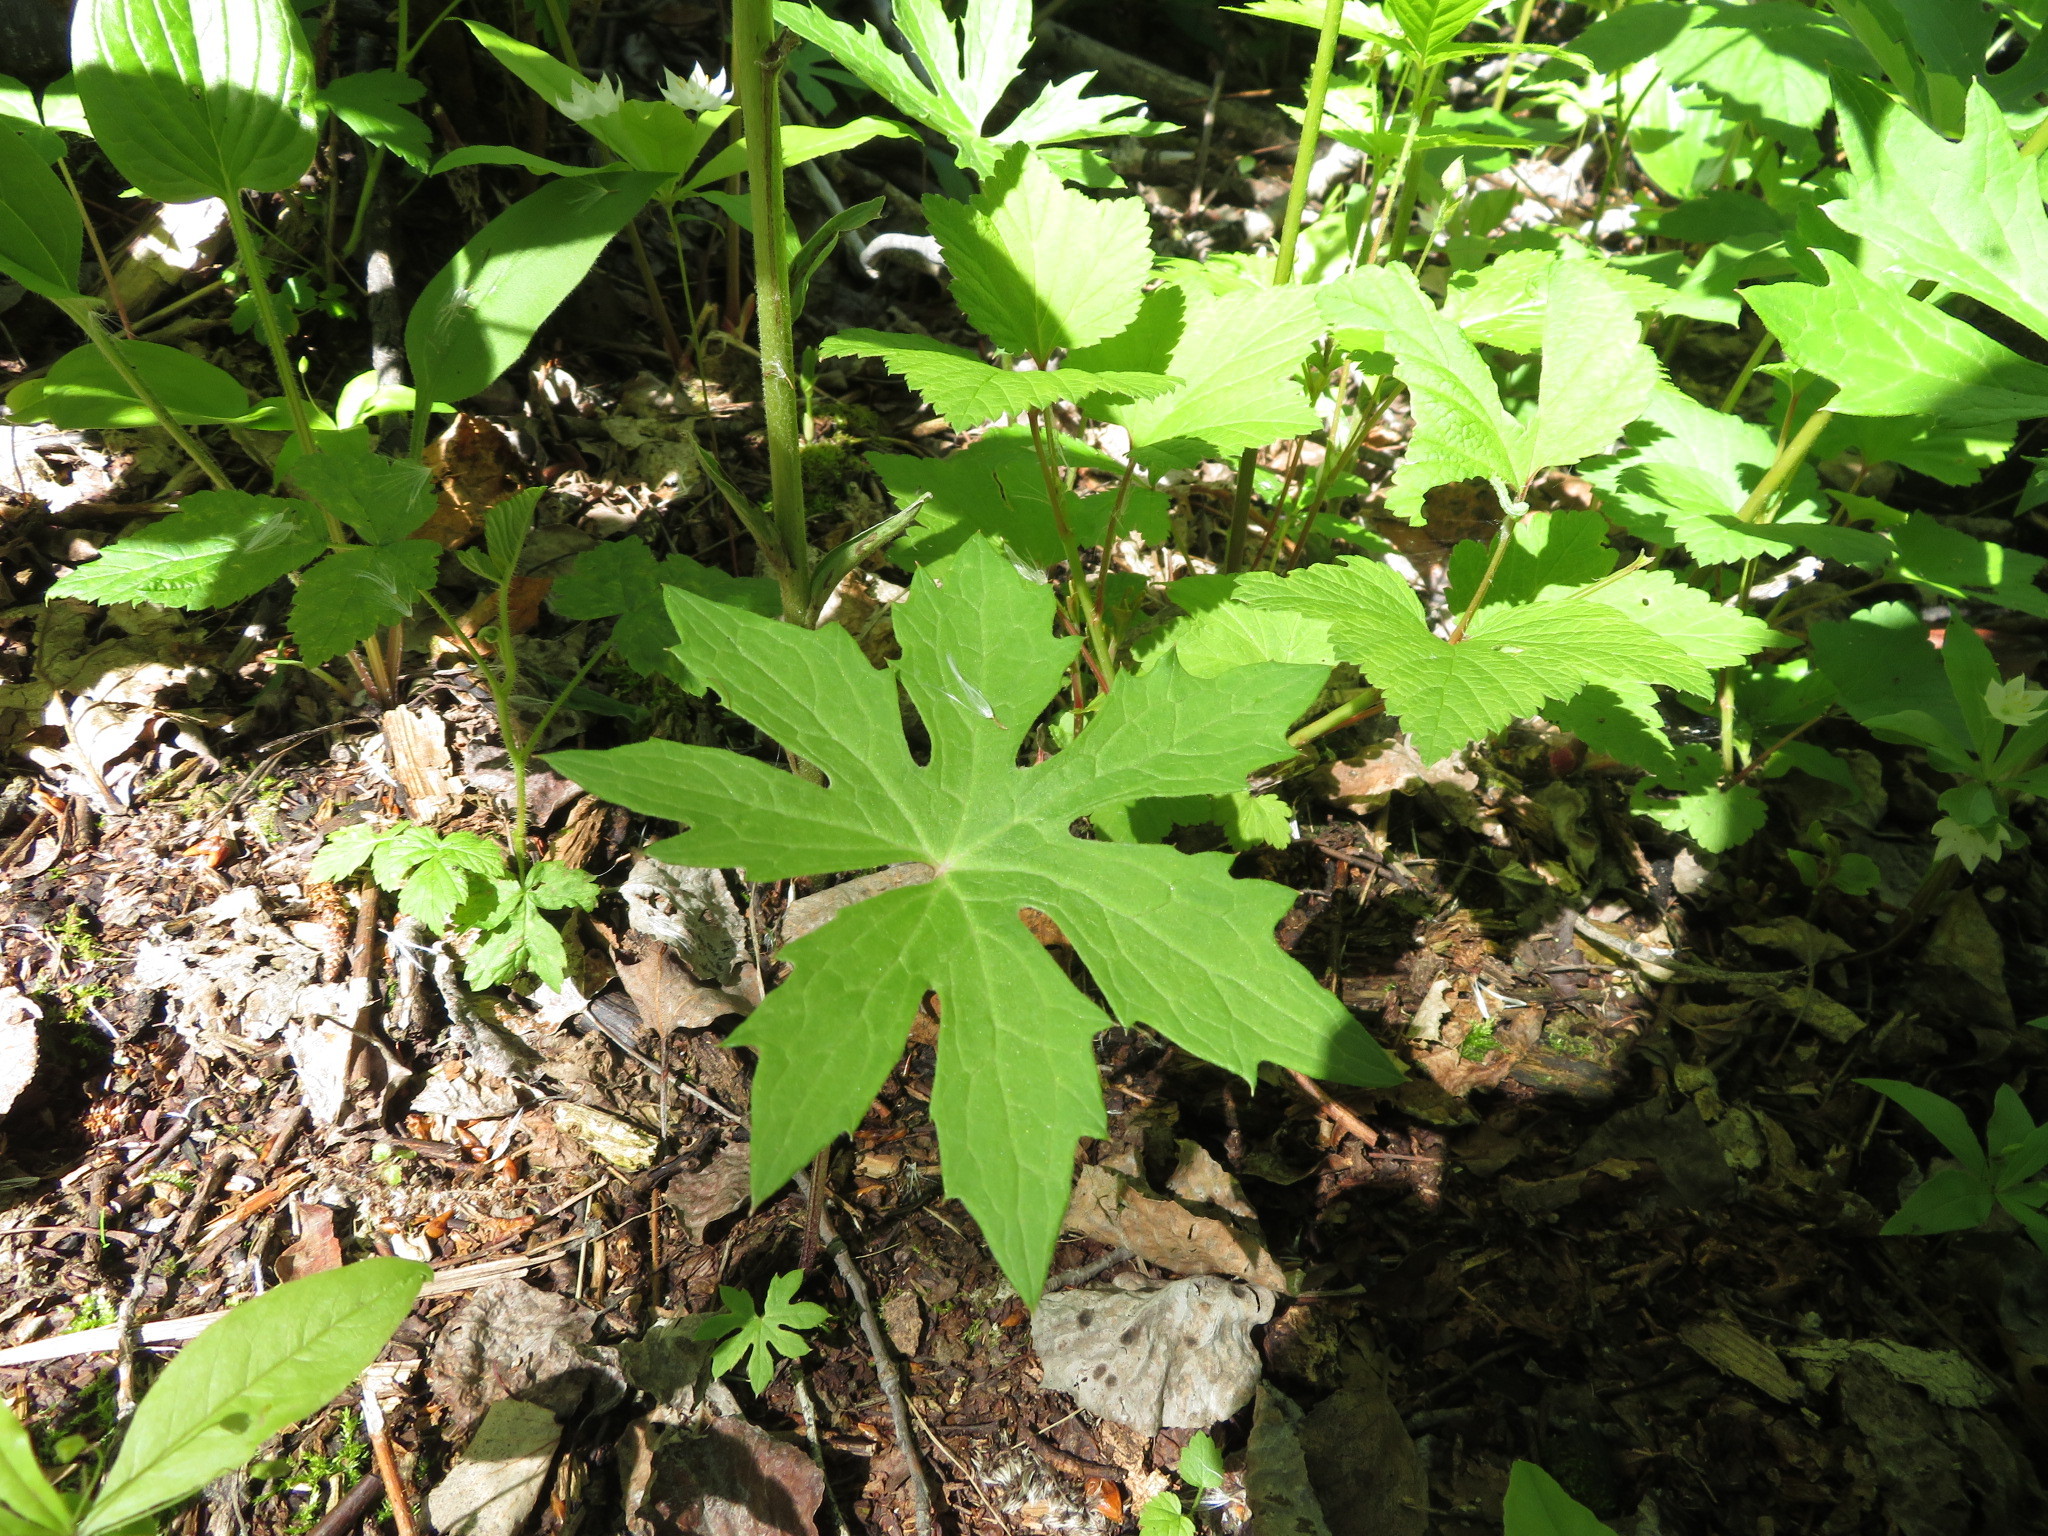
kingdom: Plantae
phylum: Tracheophyta
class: Magnoliopsida
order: Asterales
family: Asteraceae
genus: Petasites
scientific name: Petasites frigidus
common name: Arctic butterbur
